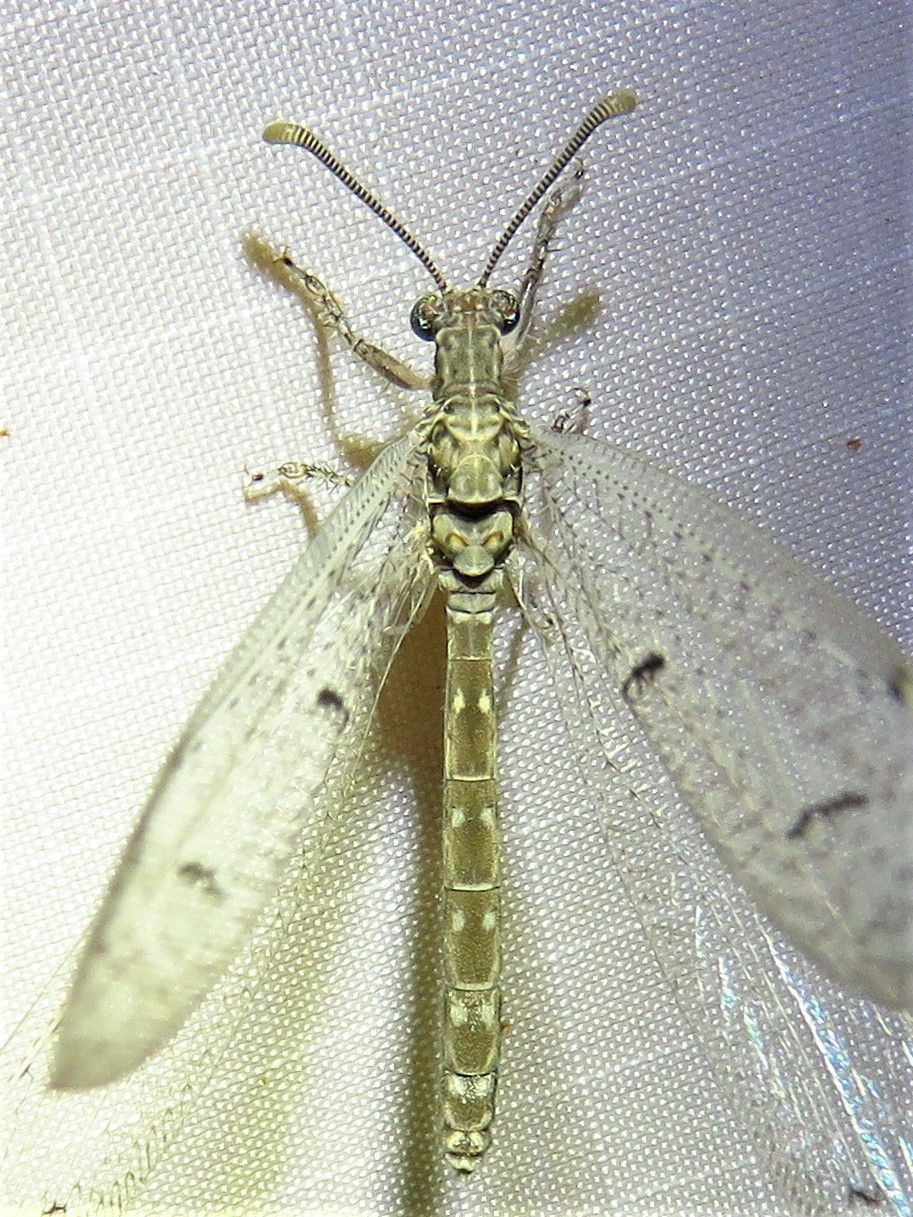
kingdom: Animalia
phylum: Arthropoda
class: Insecta
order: Neuroptera
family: Myrmeleontidae
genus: Euptilon
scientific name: Euptilon ornatum
